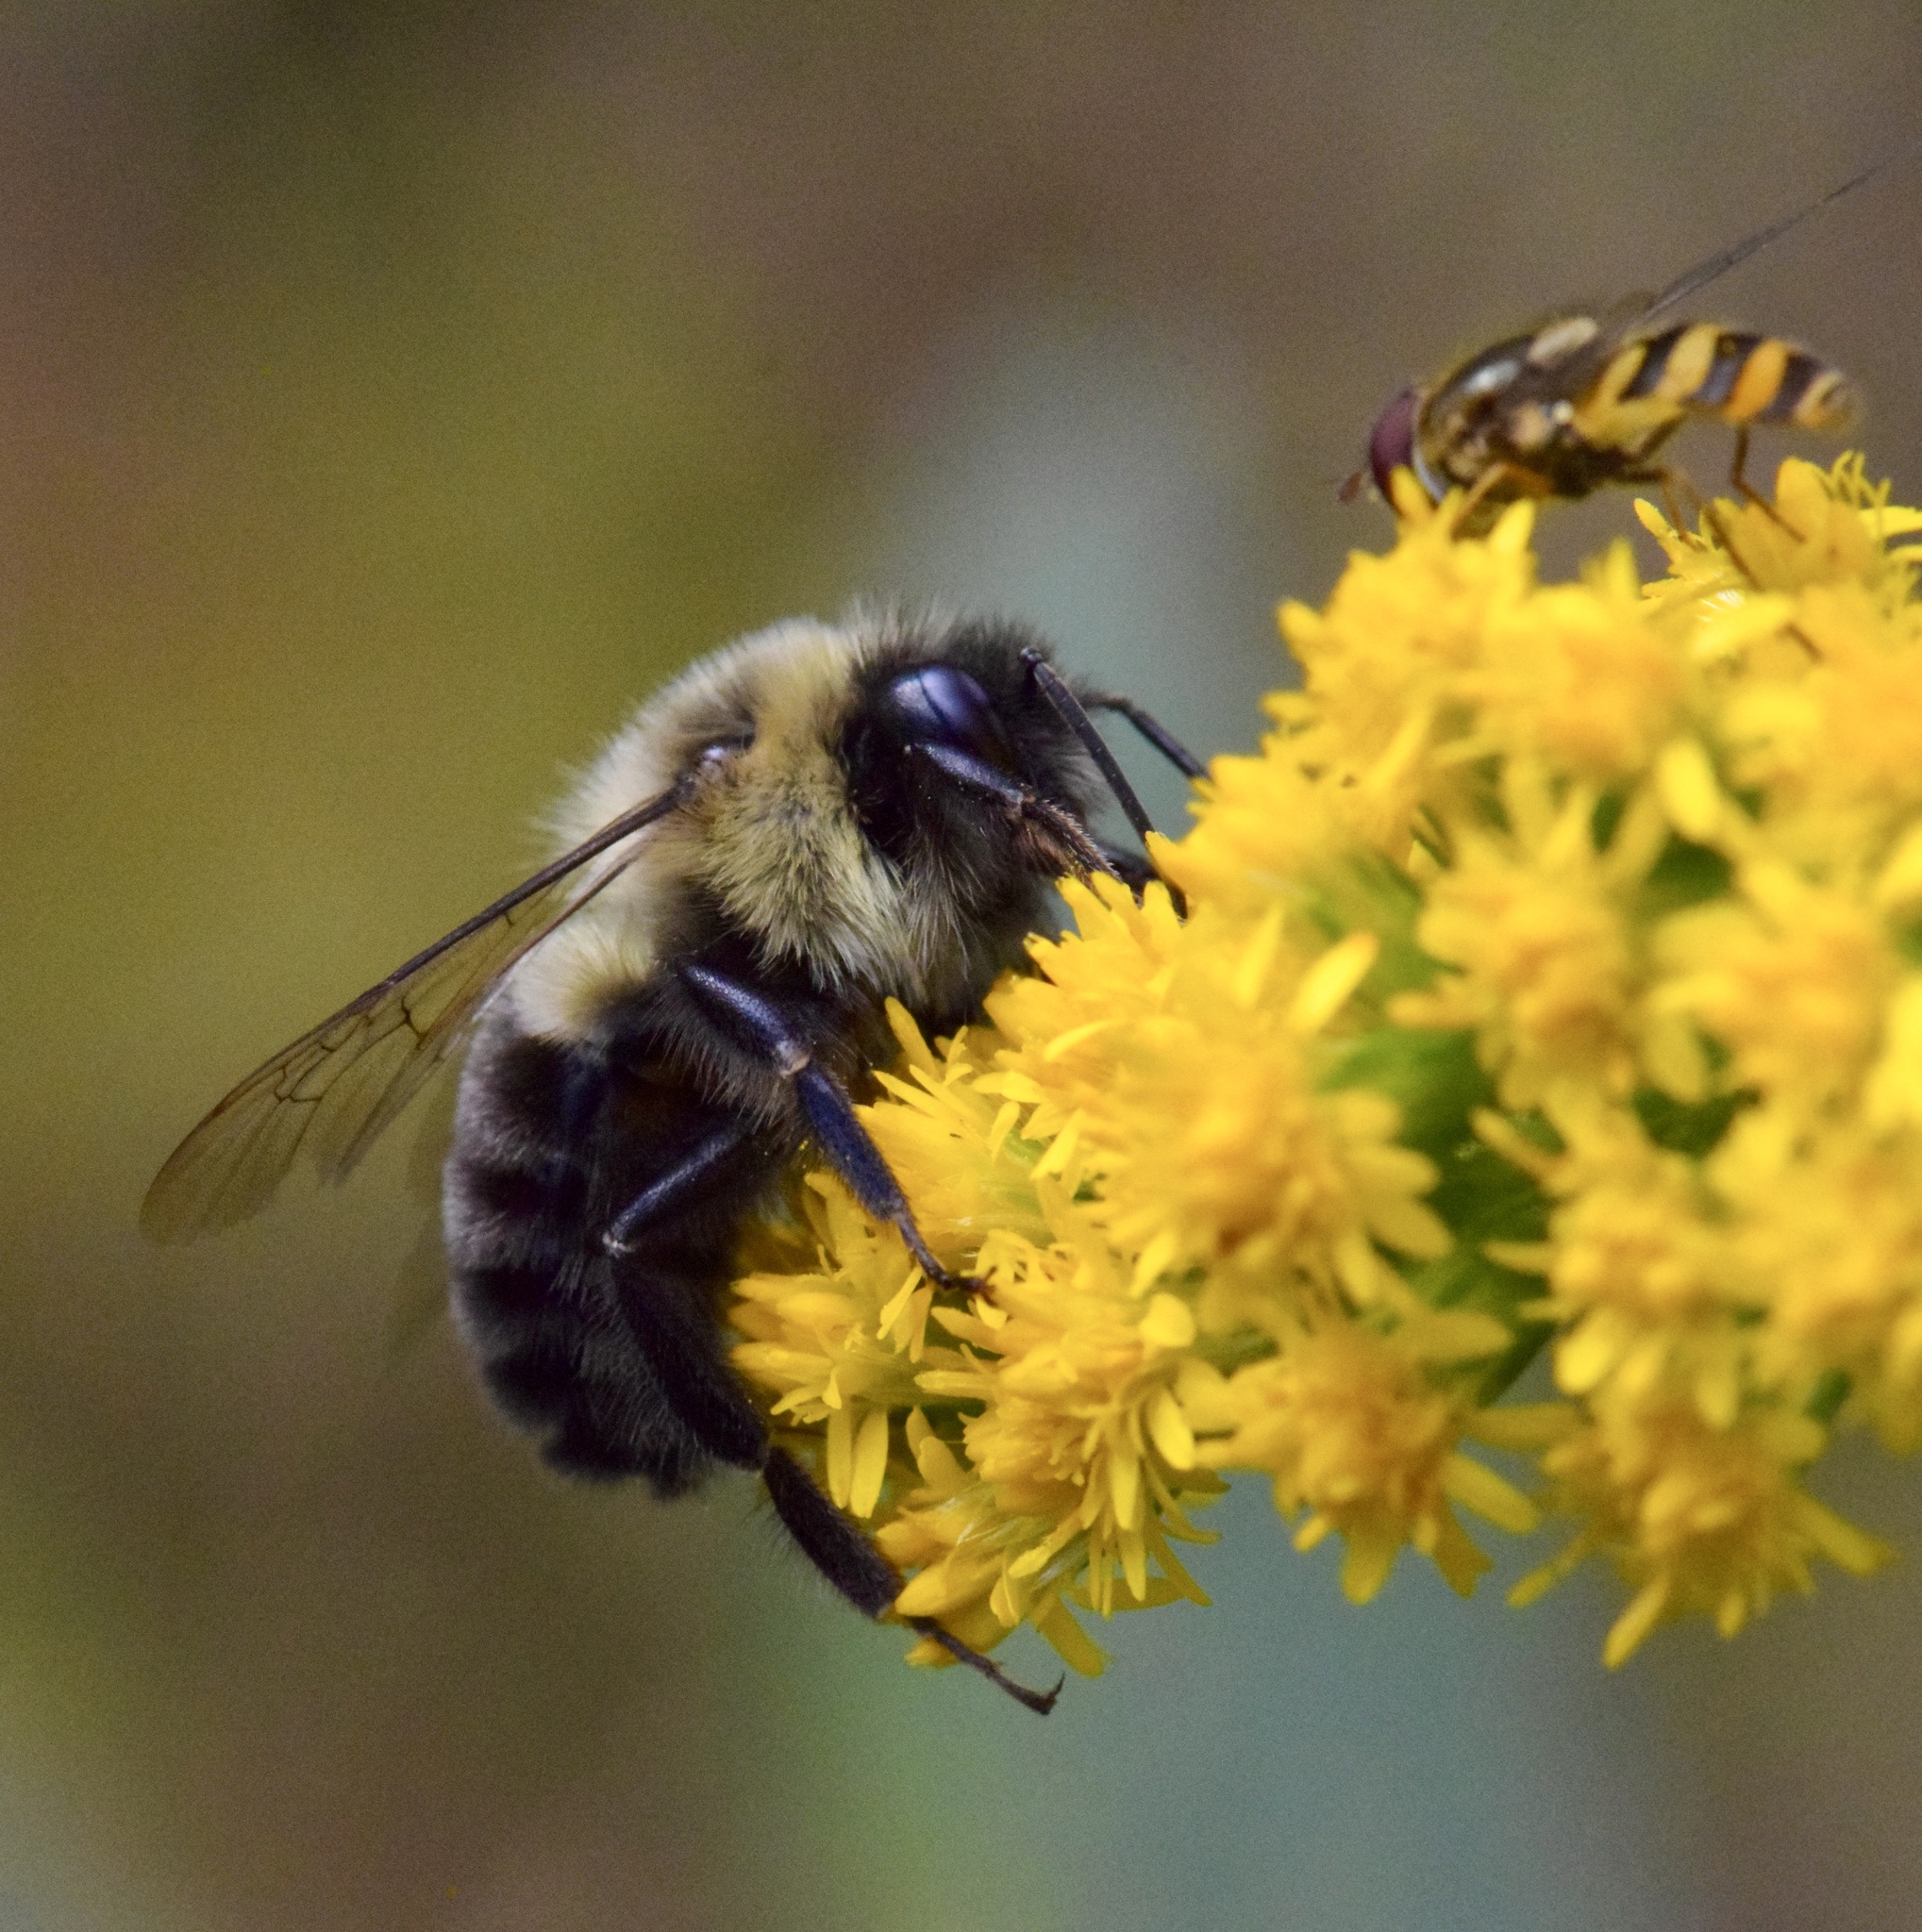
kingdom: Animalia
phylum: Arthropoda
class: Insecta
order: Hymenoptera
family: Apidae
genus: Bombus
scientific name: Bombus impatiens
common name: Common eastern bumble bee
